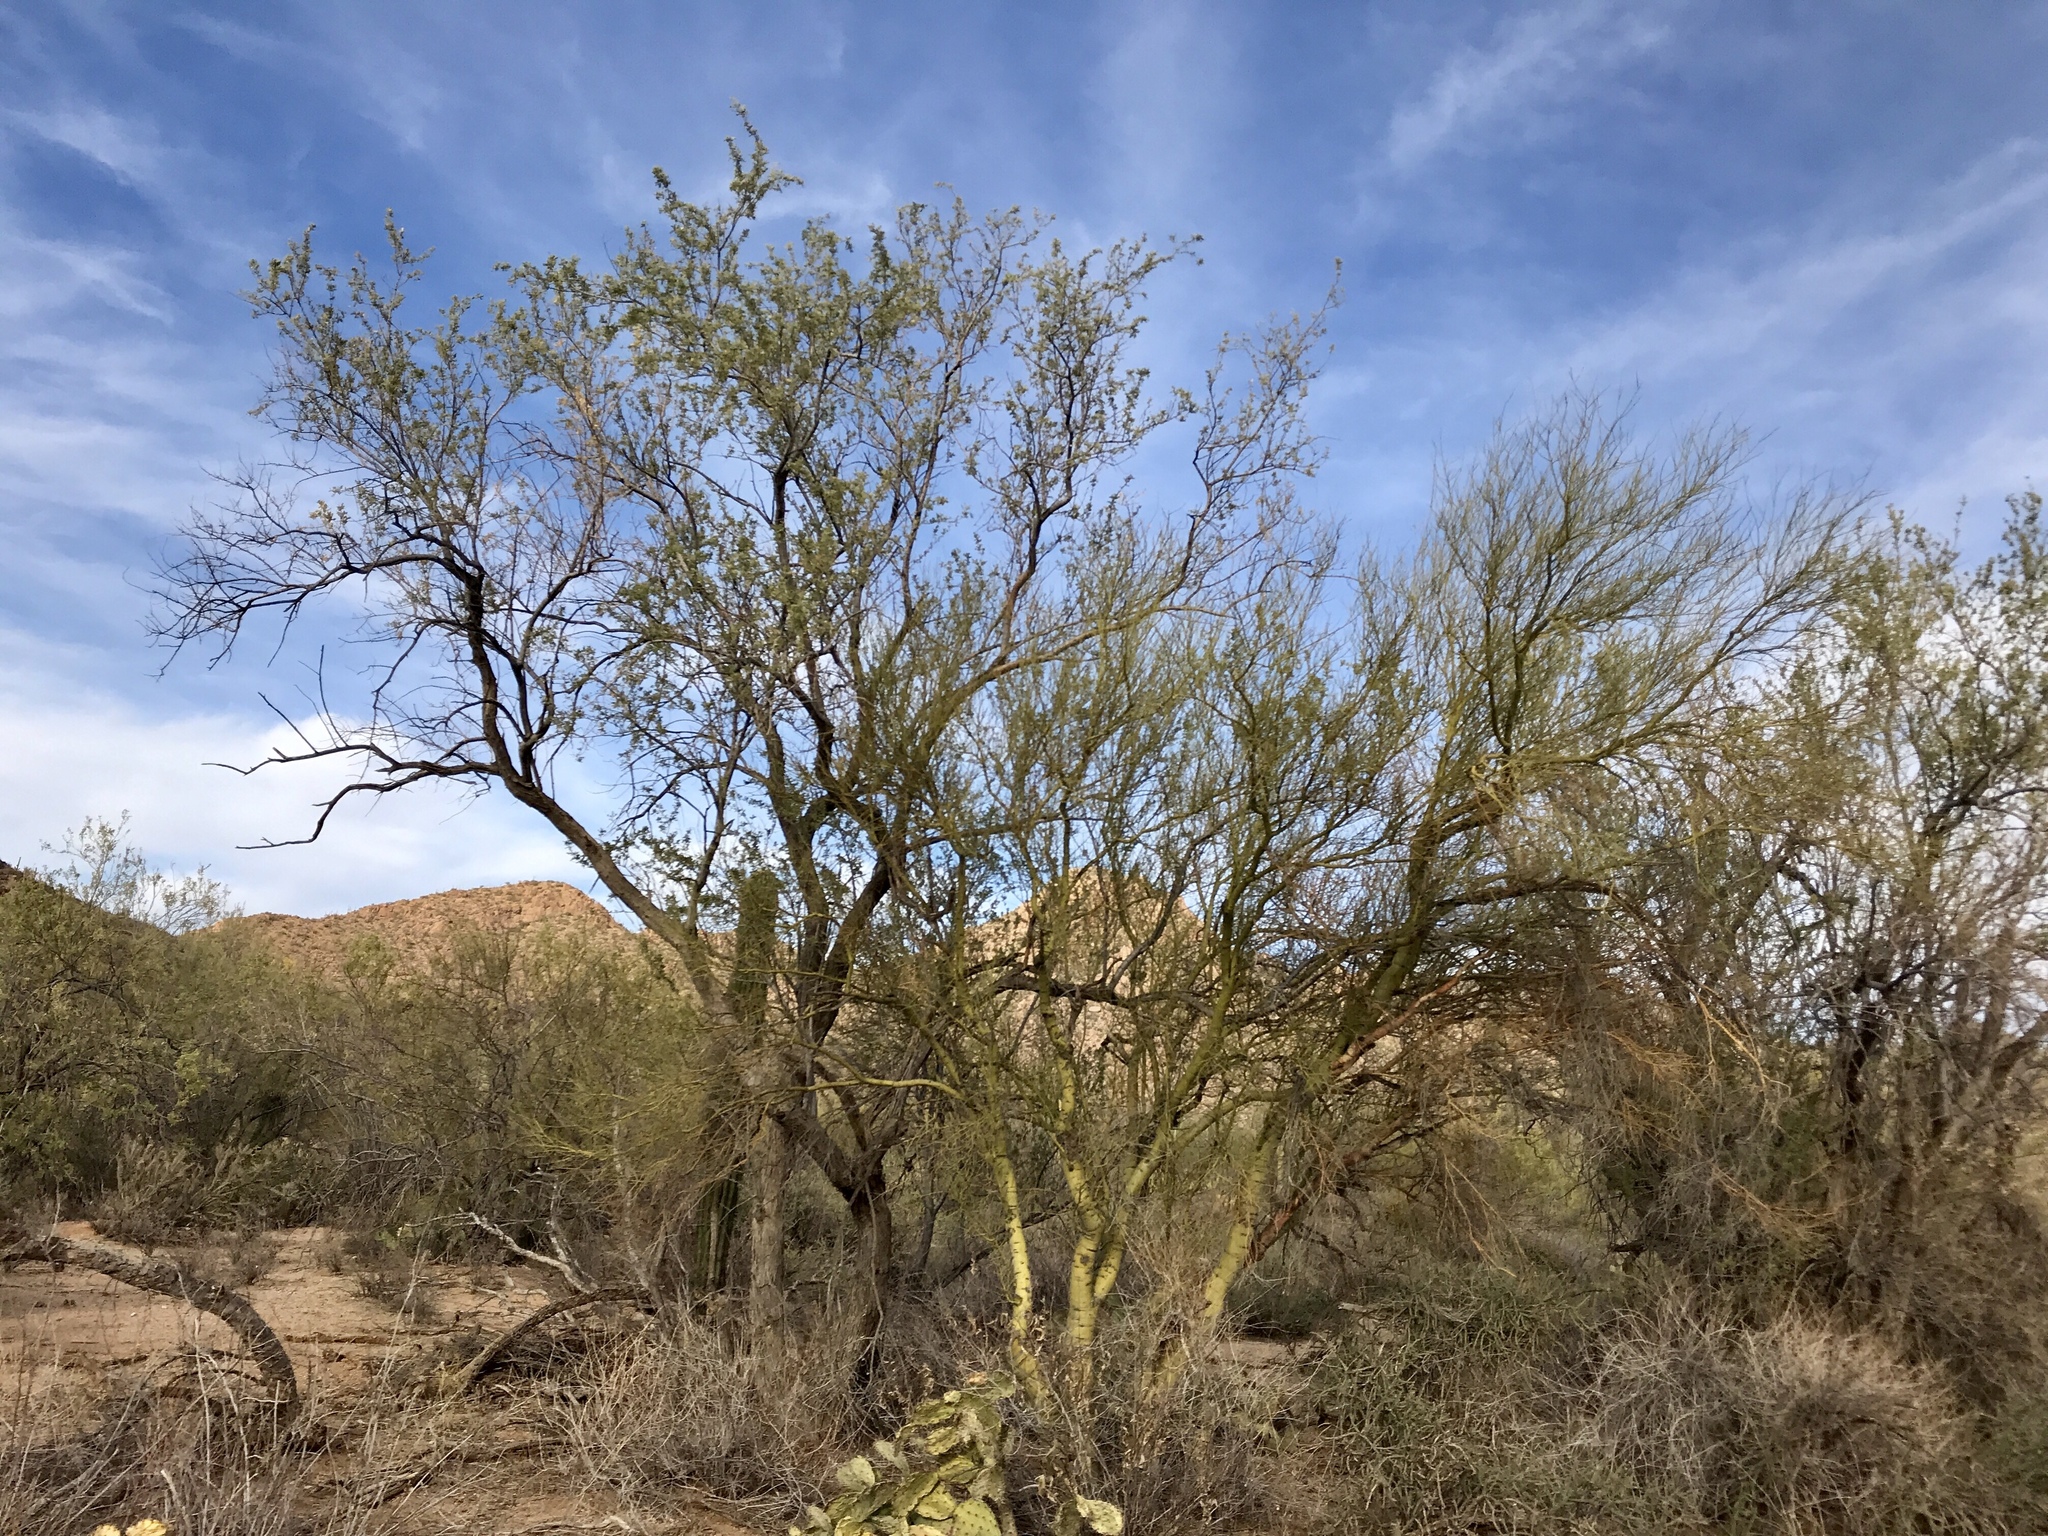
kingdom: Plantae
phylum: Tracheophyta
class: Magnoliopsida
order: Fabales
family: Fabaceae
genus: Parkinsonia
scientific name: Parkinsonia microphylla
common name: Yellow paloverde
